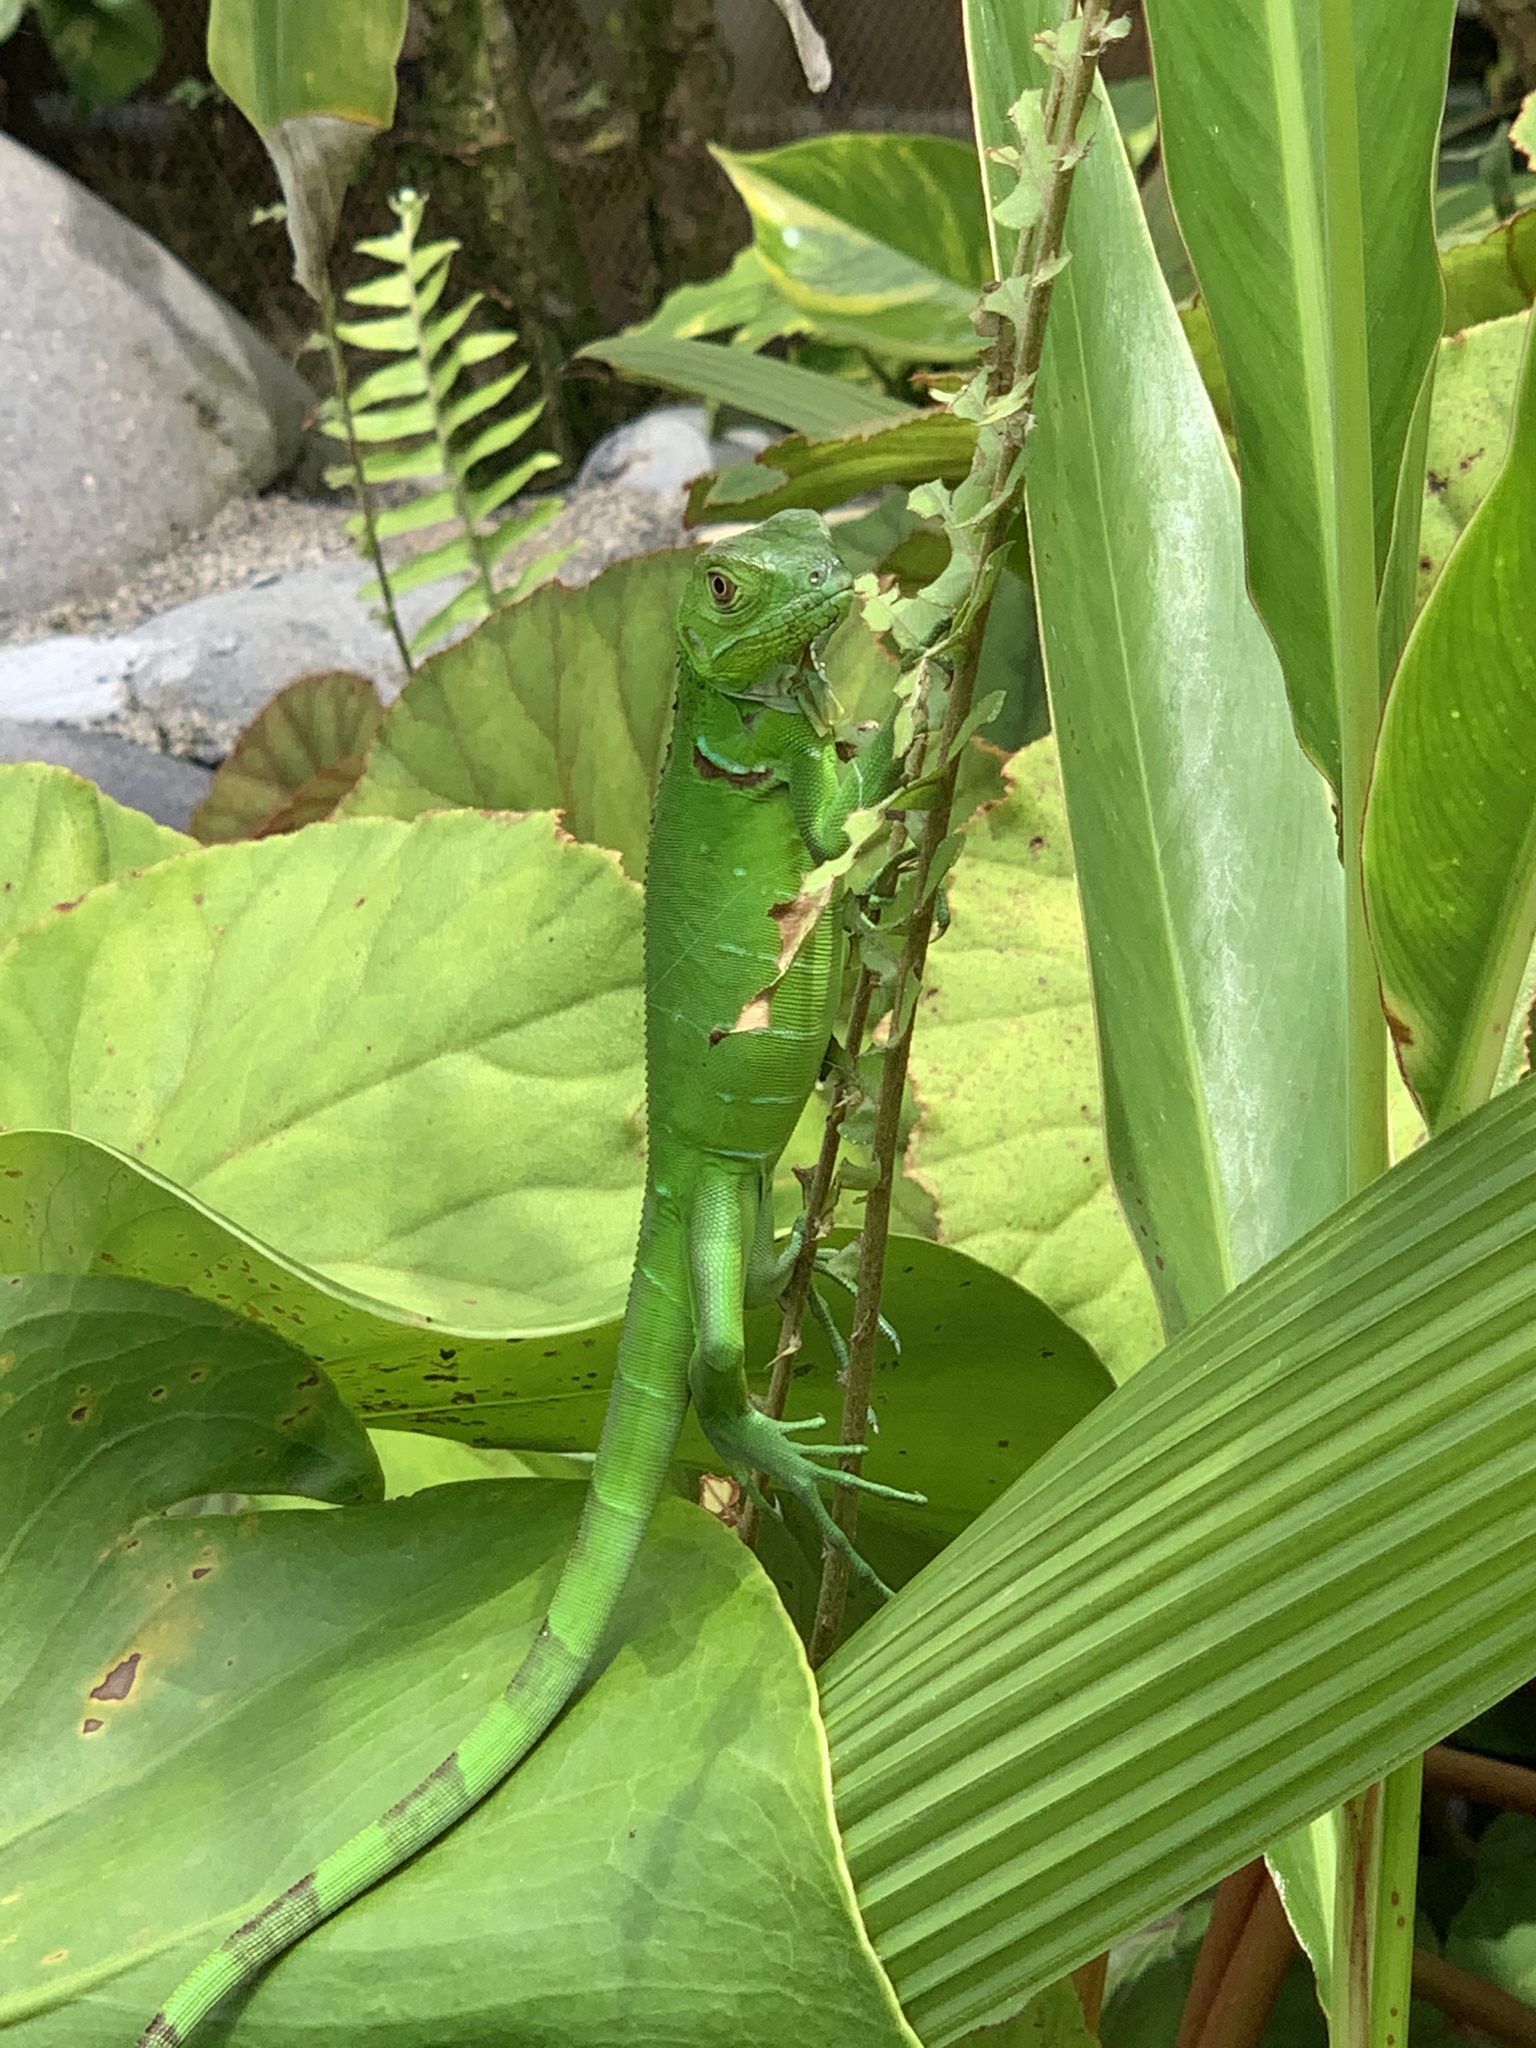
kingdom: Animalia
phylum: Chordata
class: Squamata
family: Iguanidae
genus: Iguana
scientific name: Iguana iguana
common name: Green iguana
